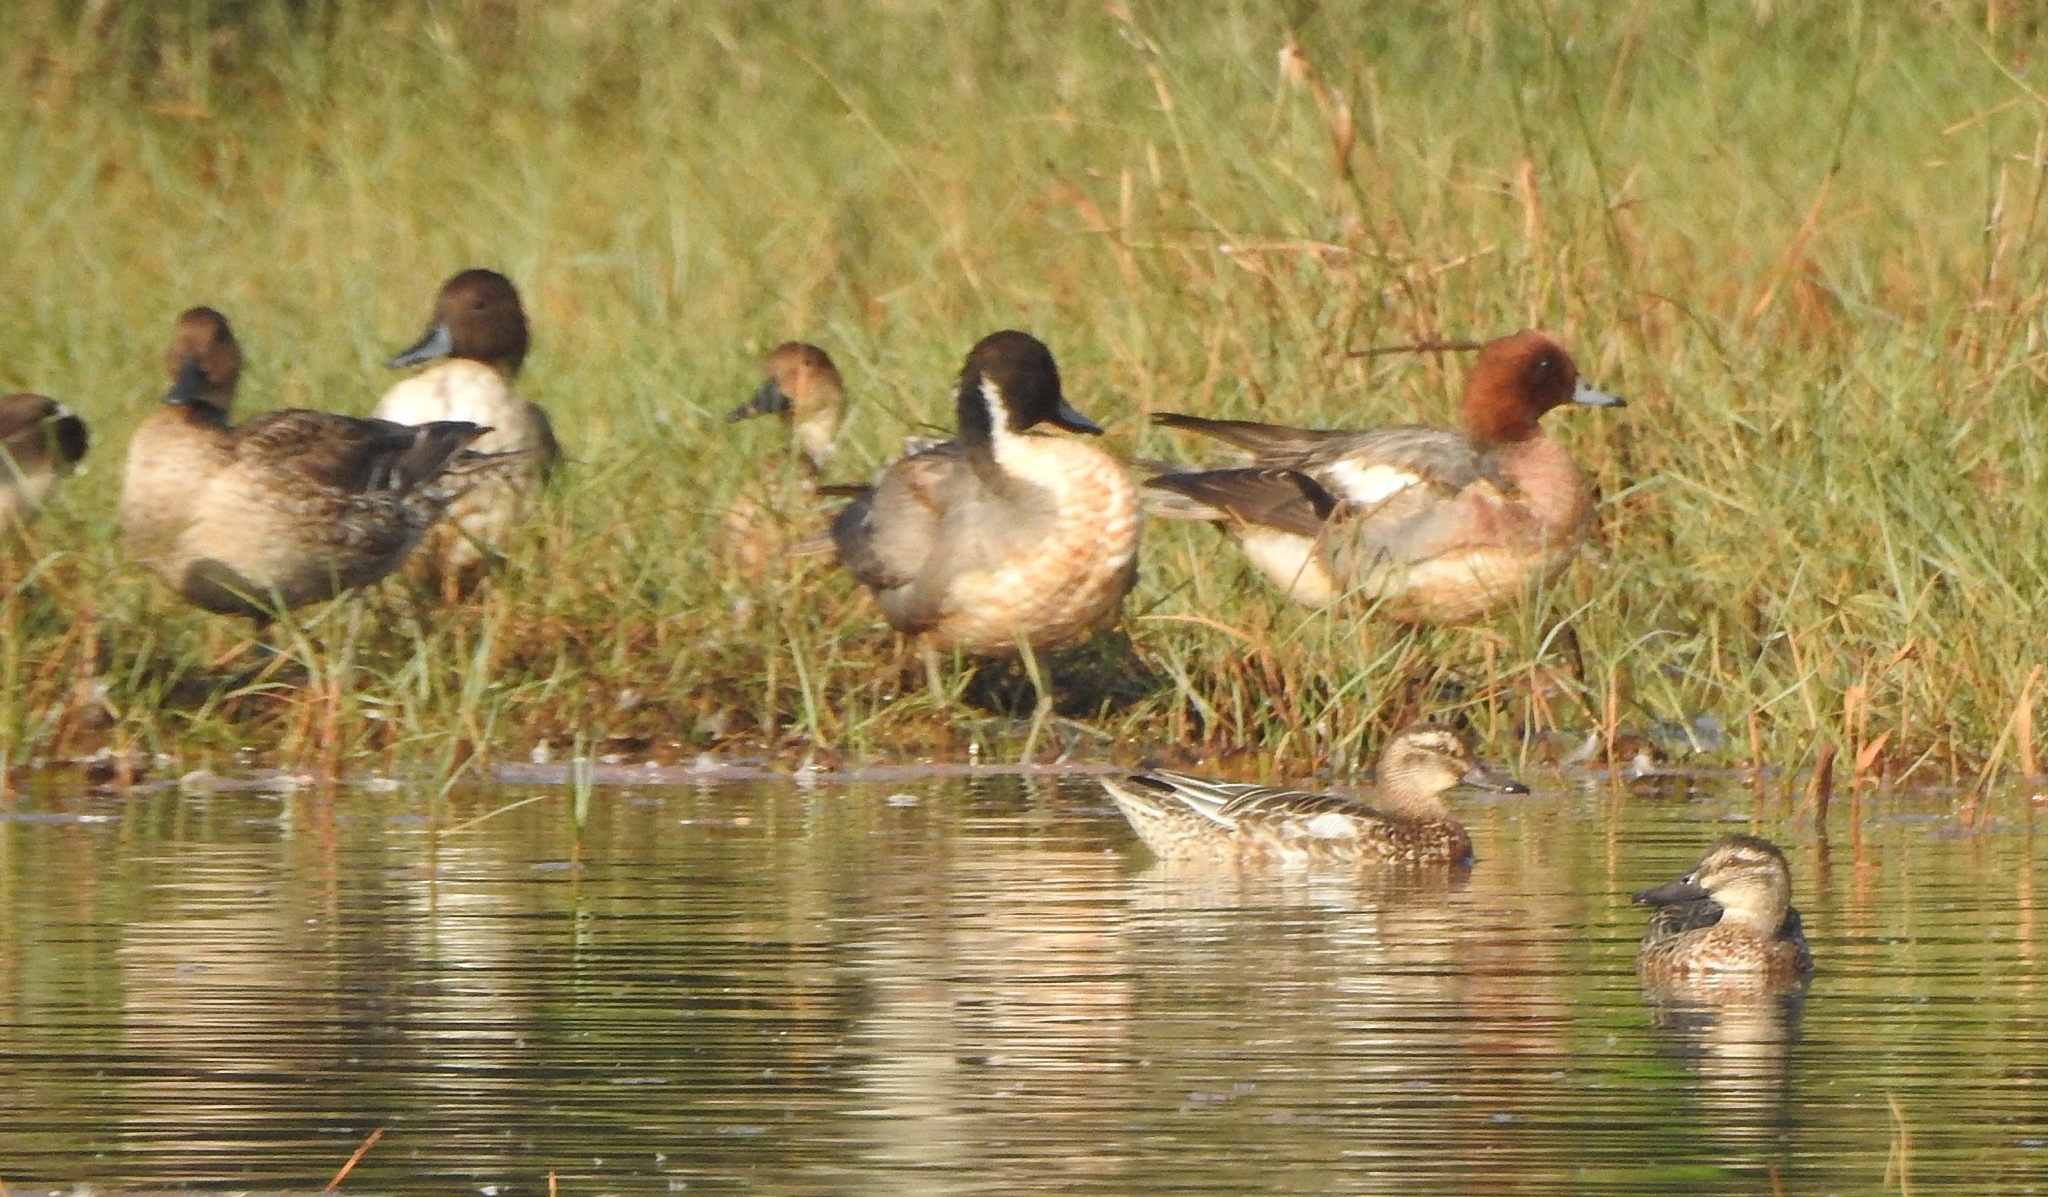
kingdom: Animalia
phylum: Chordata
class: Aves
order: Anseriformes
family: Anatidae
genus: Mareca
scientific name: Mareca penelope
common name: Eurasian wigeon
